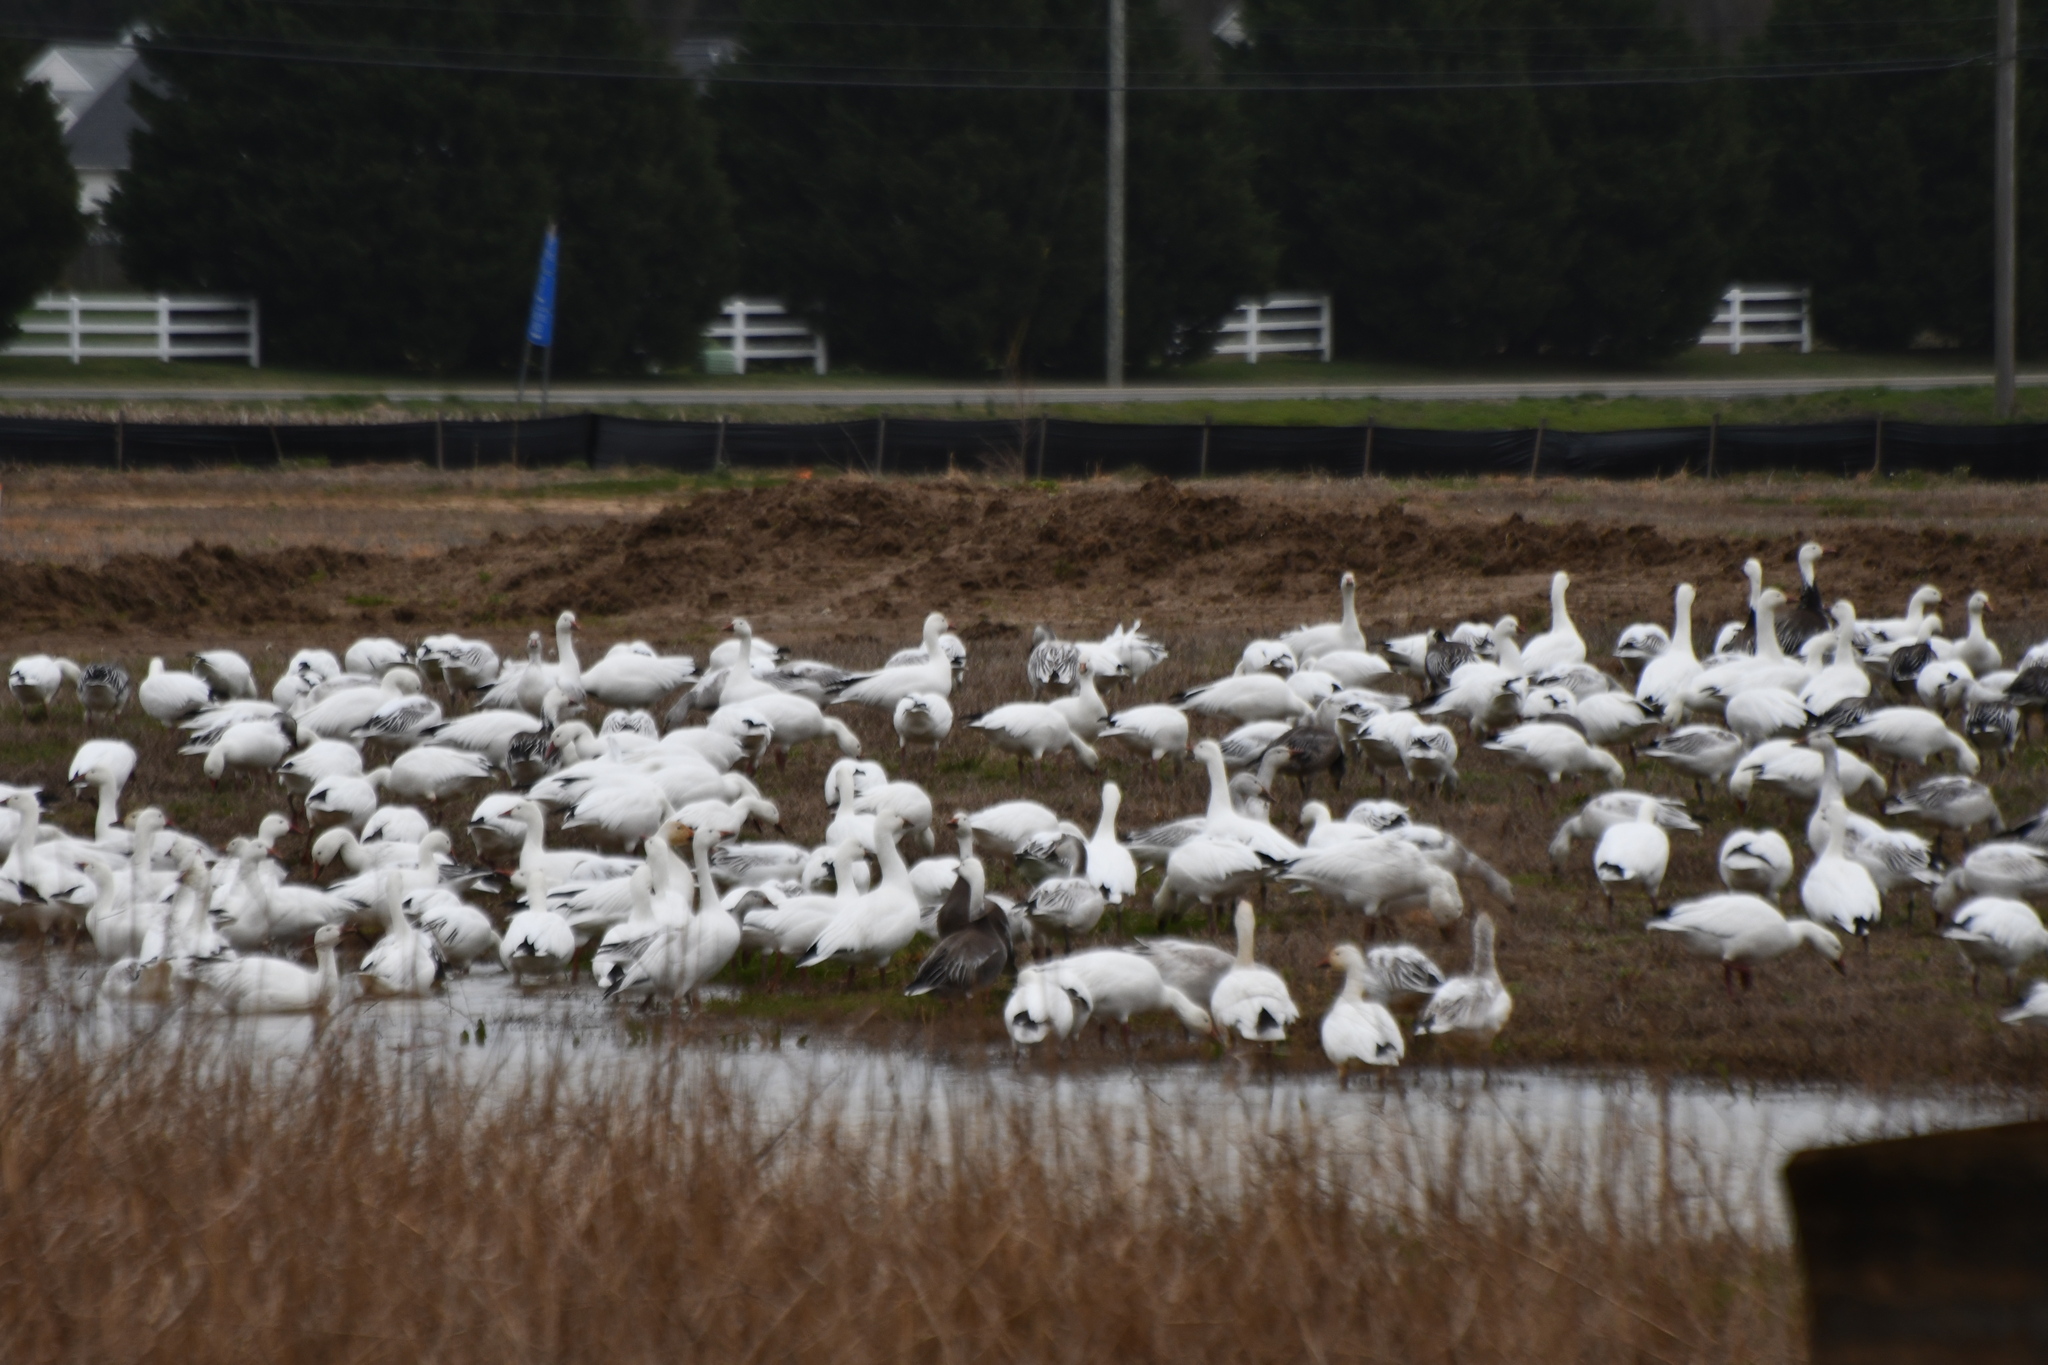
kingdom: Animalia
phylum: Chordata
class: Aves
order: Anseriformes
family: Anatidae
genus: Anser
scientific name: Anser caerulescens
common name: Snow goose
